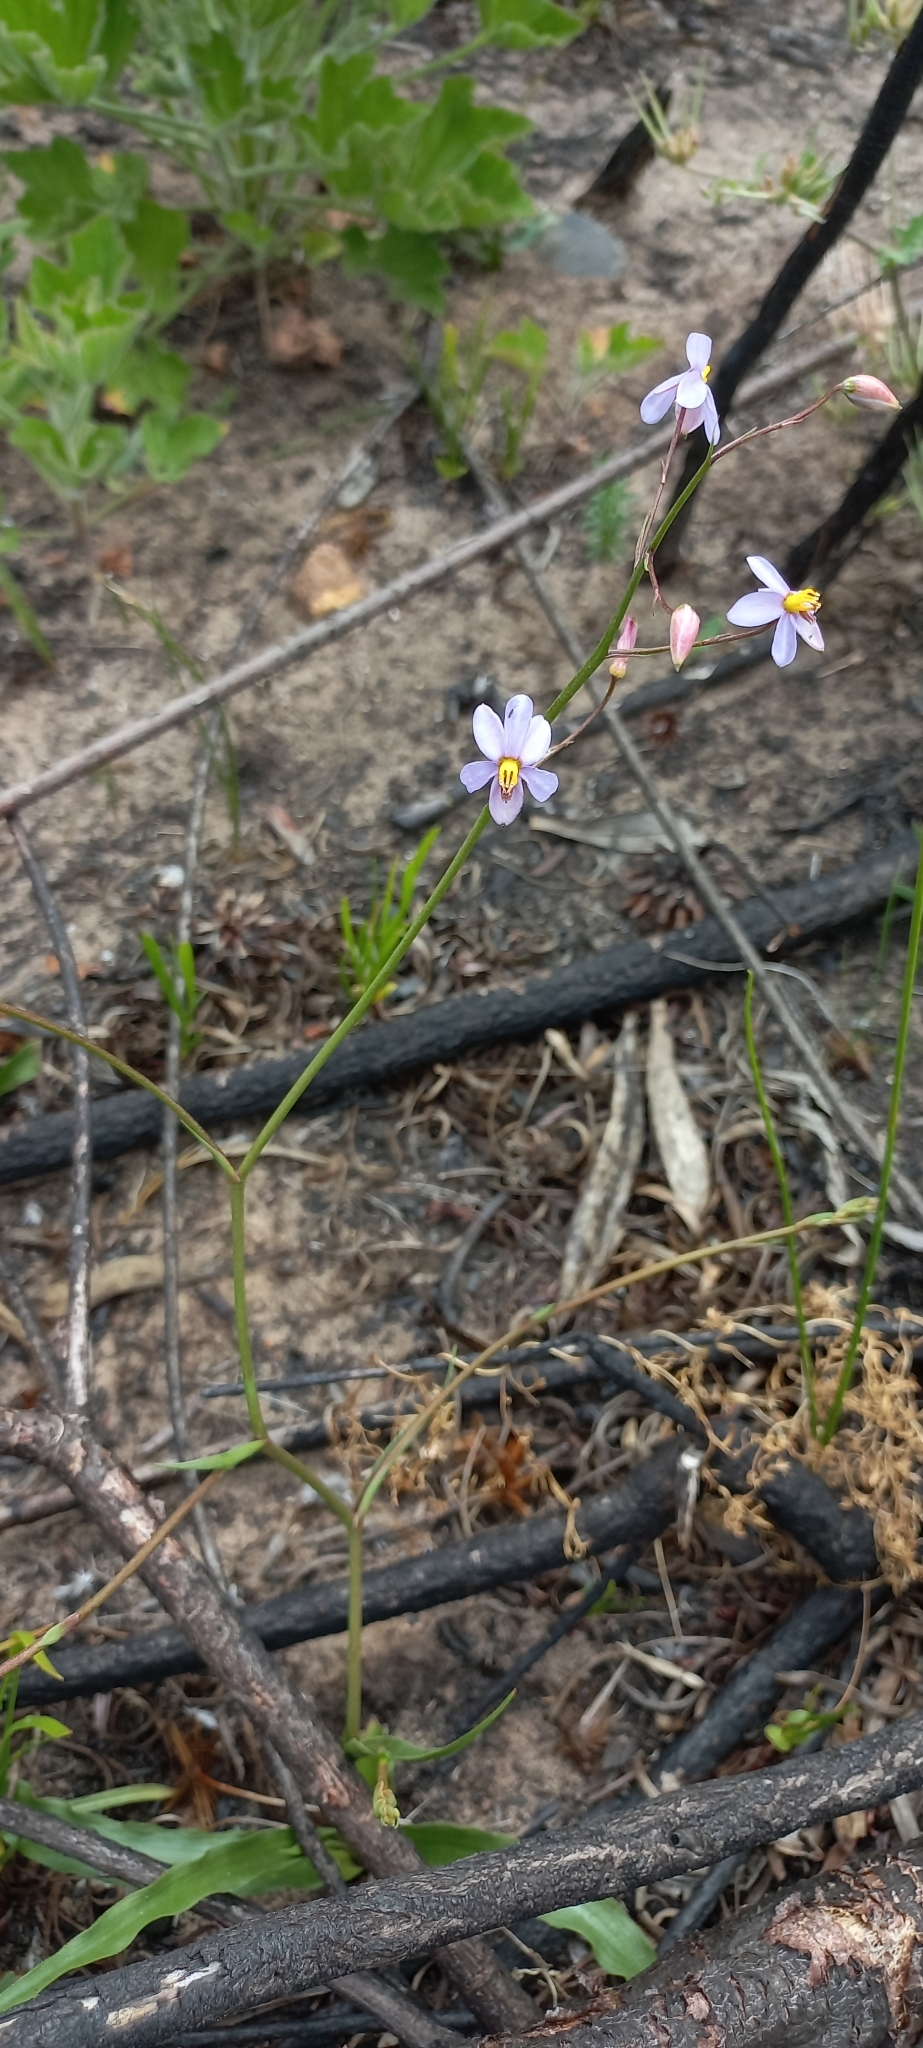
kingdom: Plantae
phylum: Tracheophyta
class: Liliopsida
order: Asparagales
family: Tecophilaeaceae
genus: Cyanella
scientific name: Cyanella hyacinthoides
